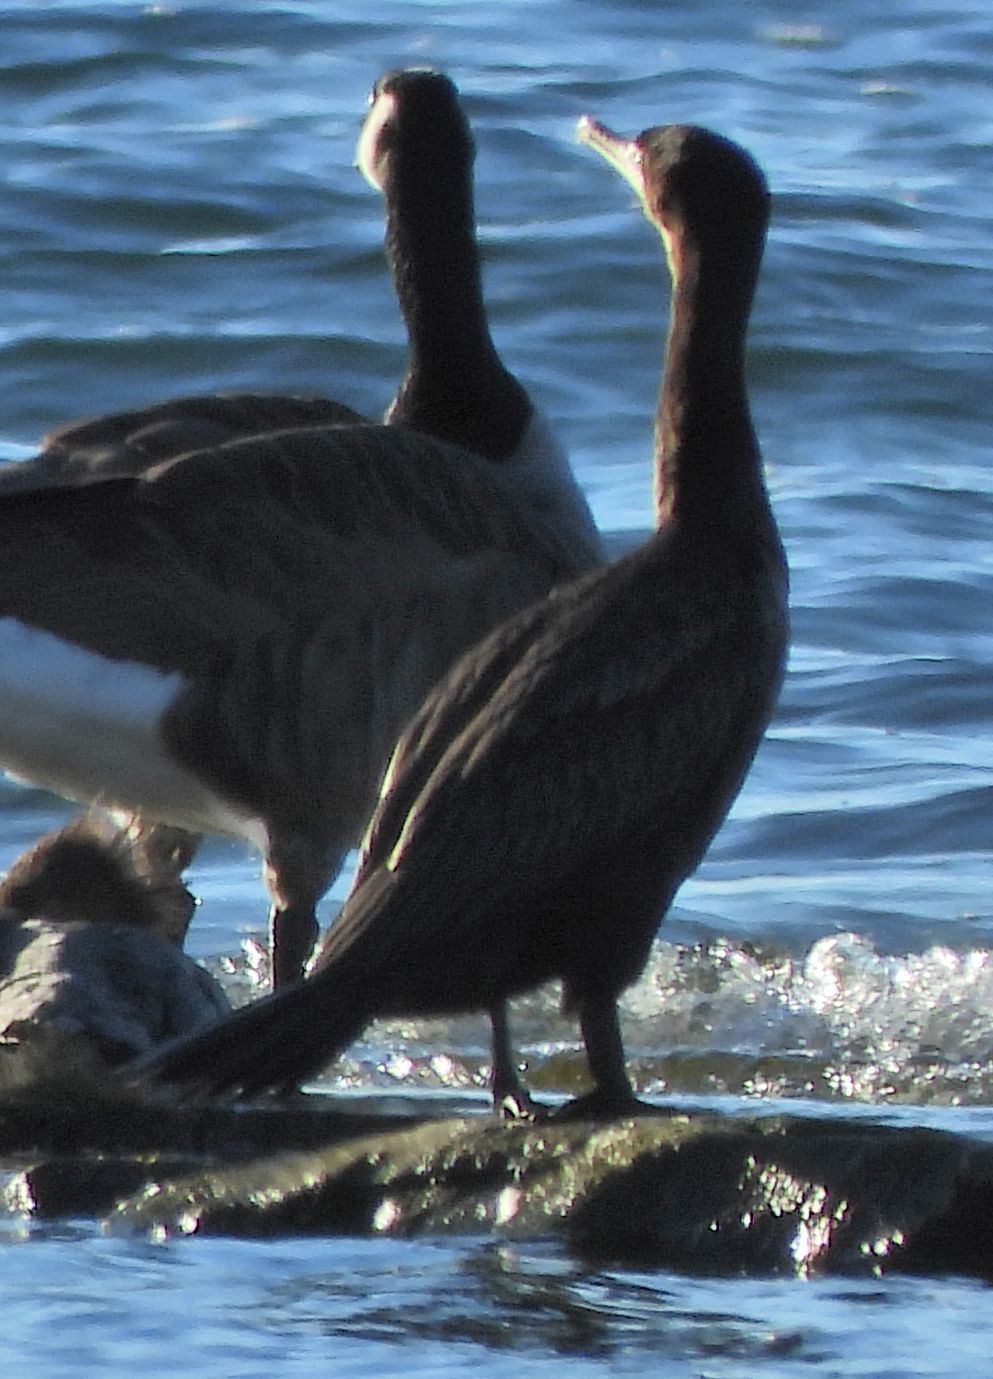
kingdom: Animalia
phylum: Chordata
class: Aves
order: Suliformes
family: Phalacrocoracidae
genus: Phalacrocorax
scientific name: Phalacrocorax auritus
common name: Double-crested cormorant
